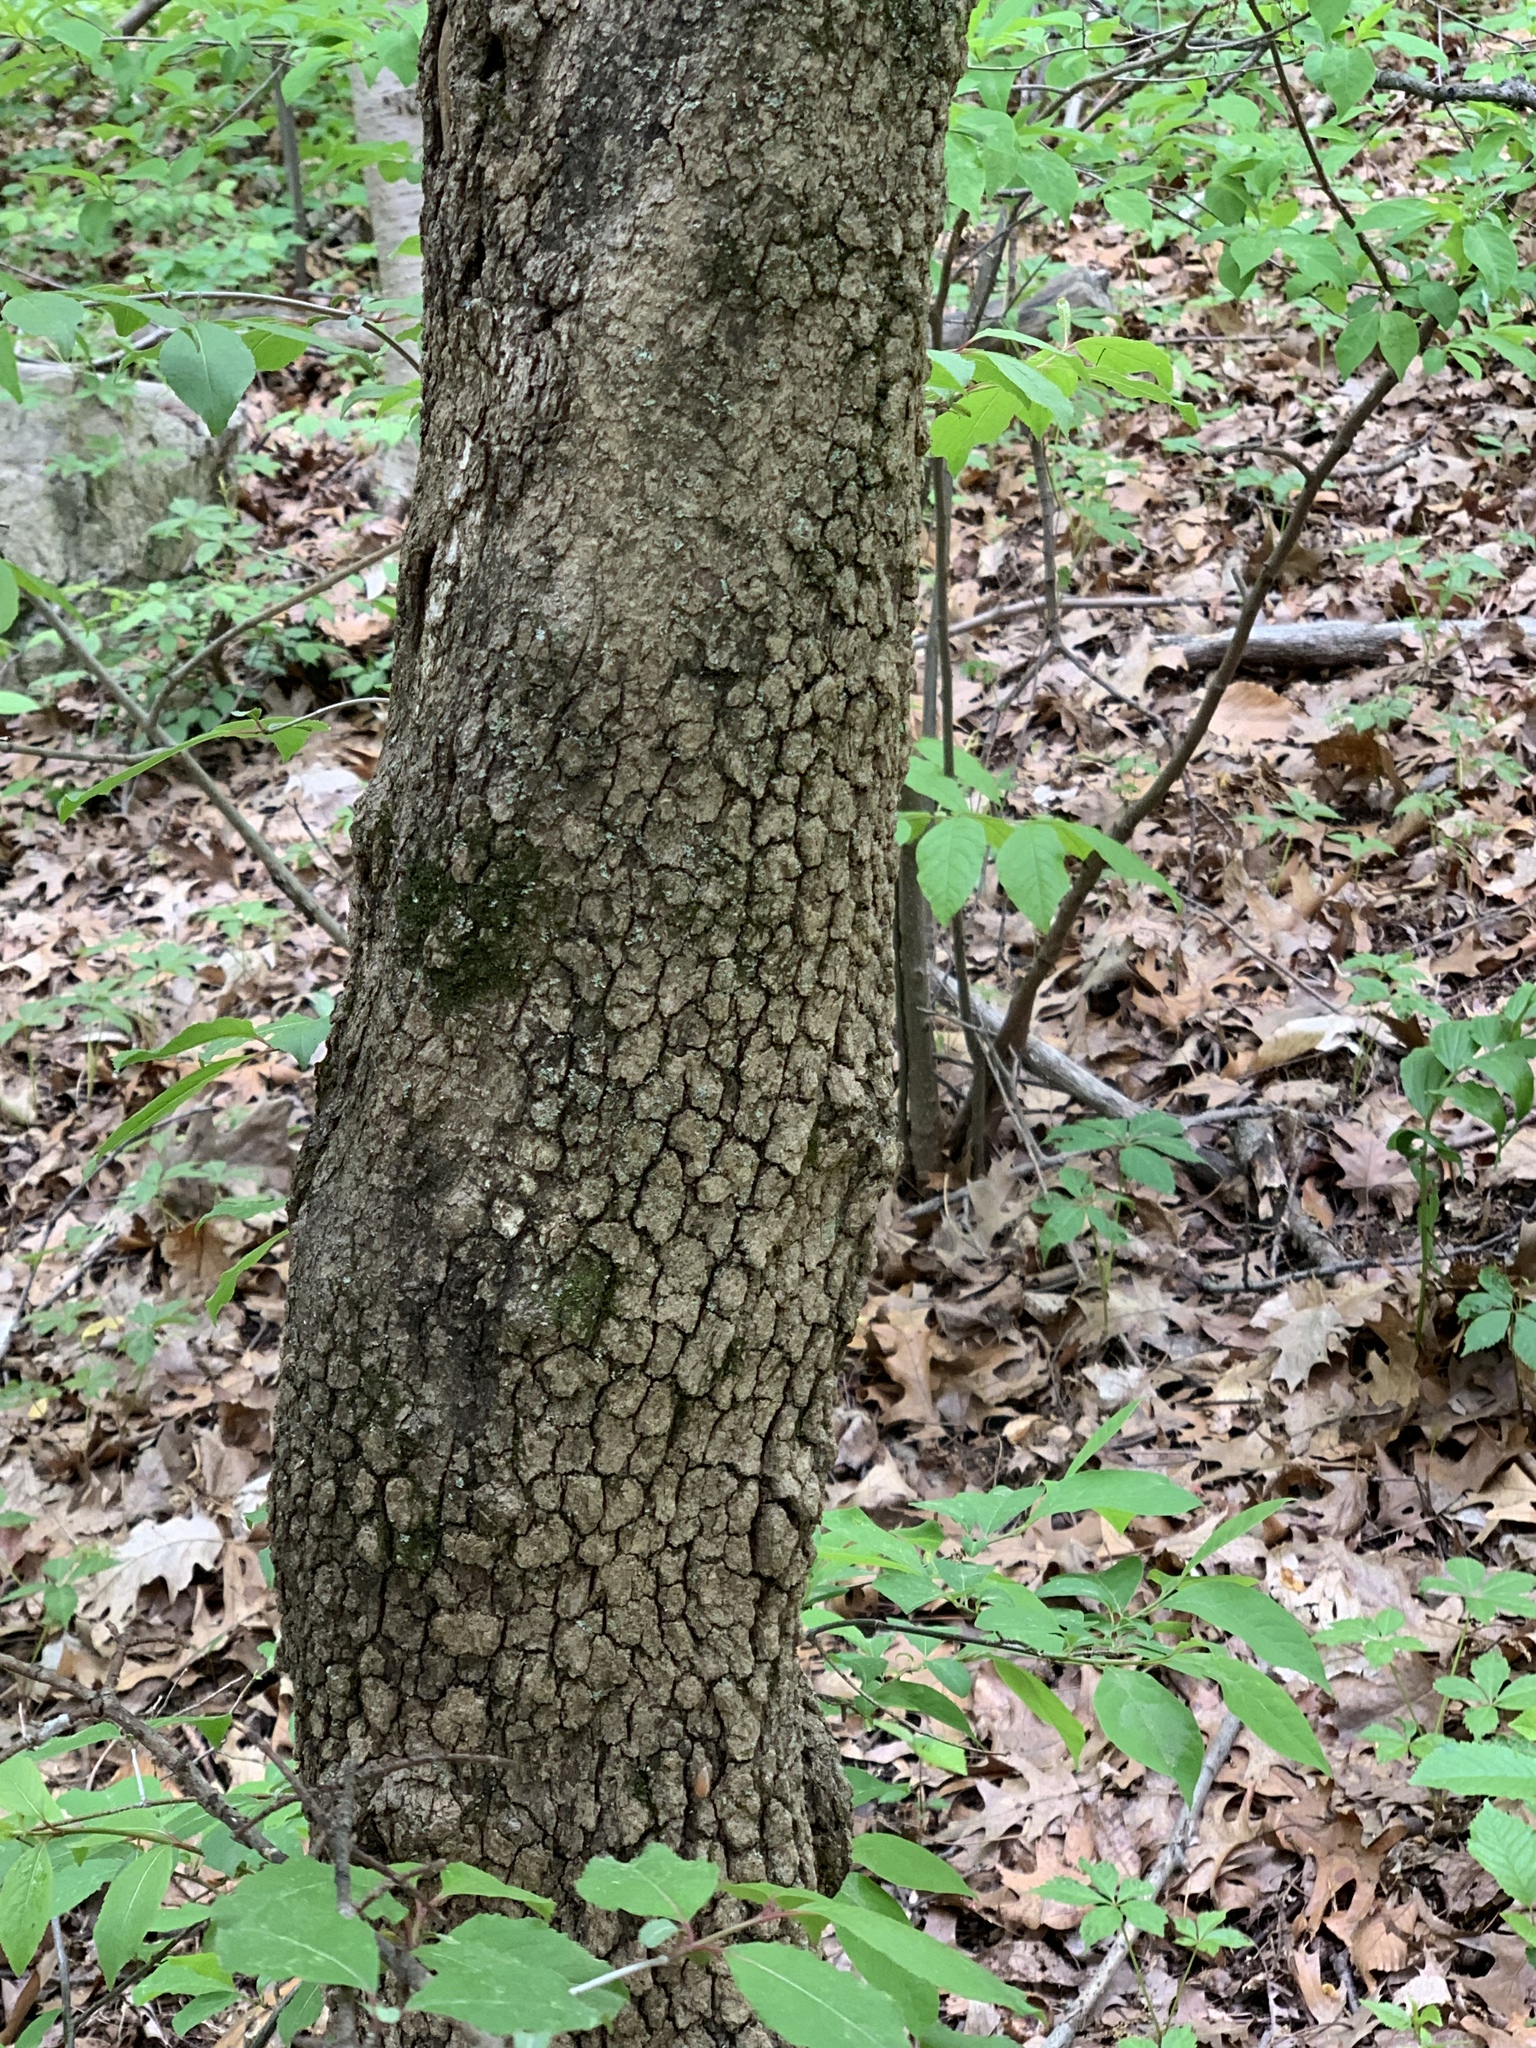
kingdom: Plantae
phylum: Tracheophyta
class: Magnoliopsida
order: Dipsacales
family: Viburnaceae
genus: Viburnum
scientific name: Viburnum prunifolium
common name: Black haw
